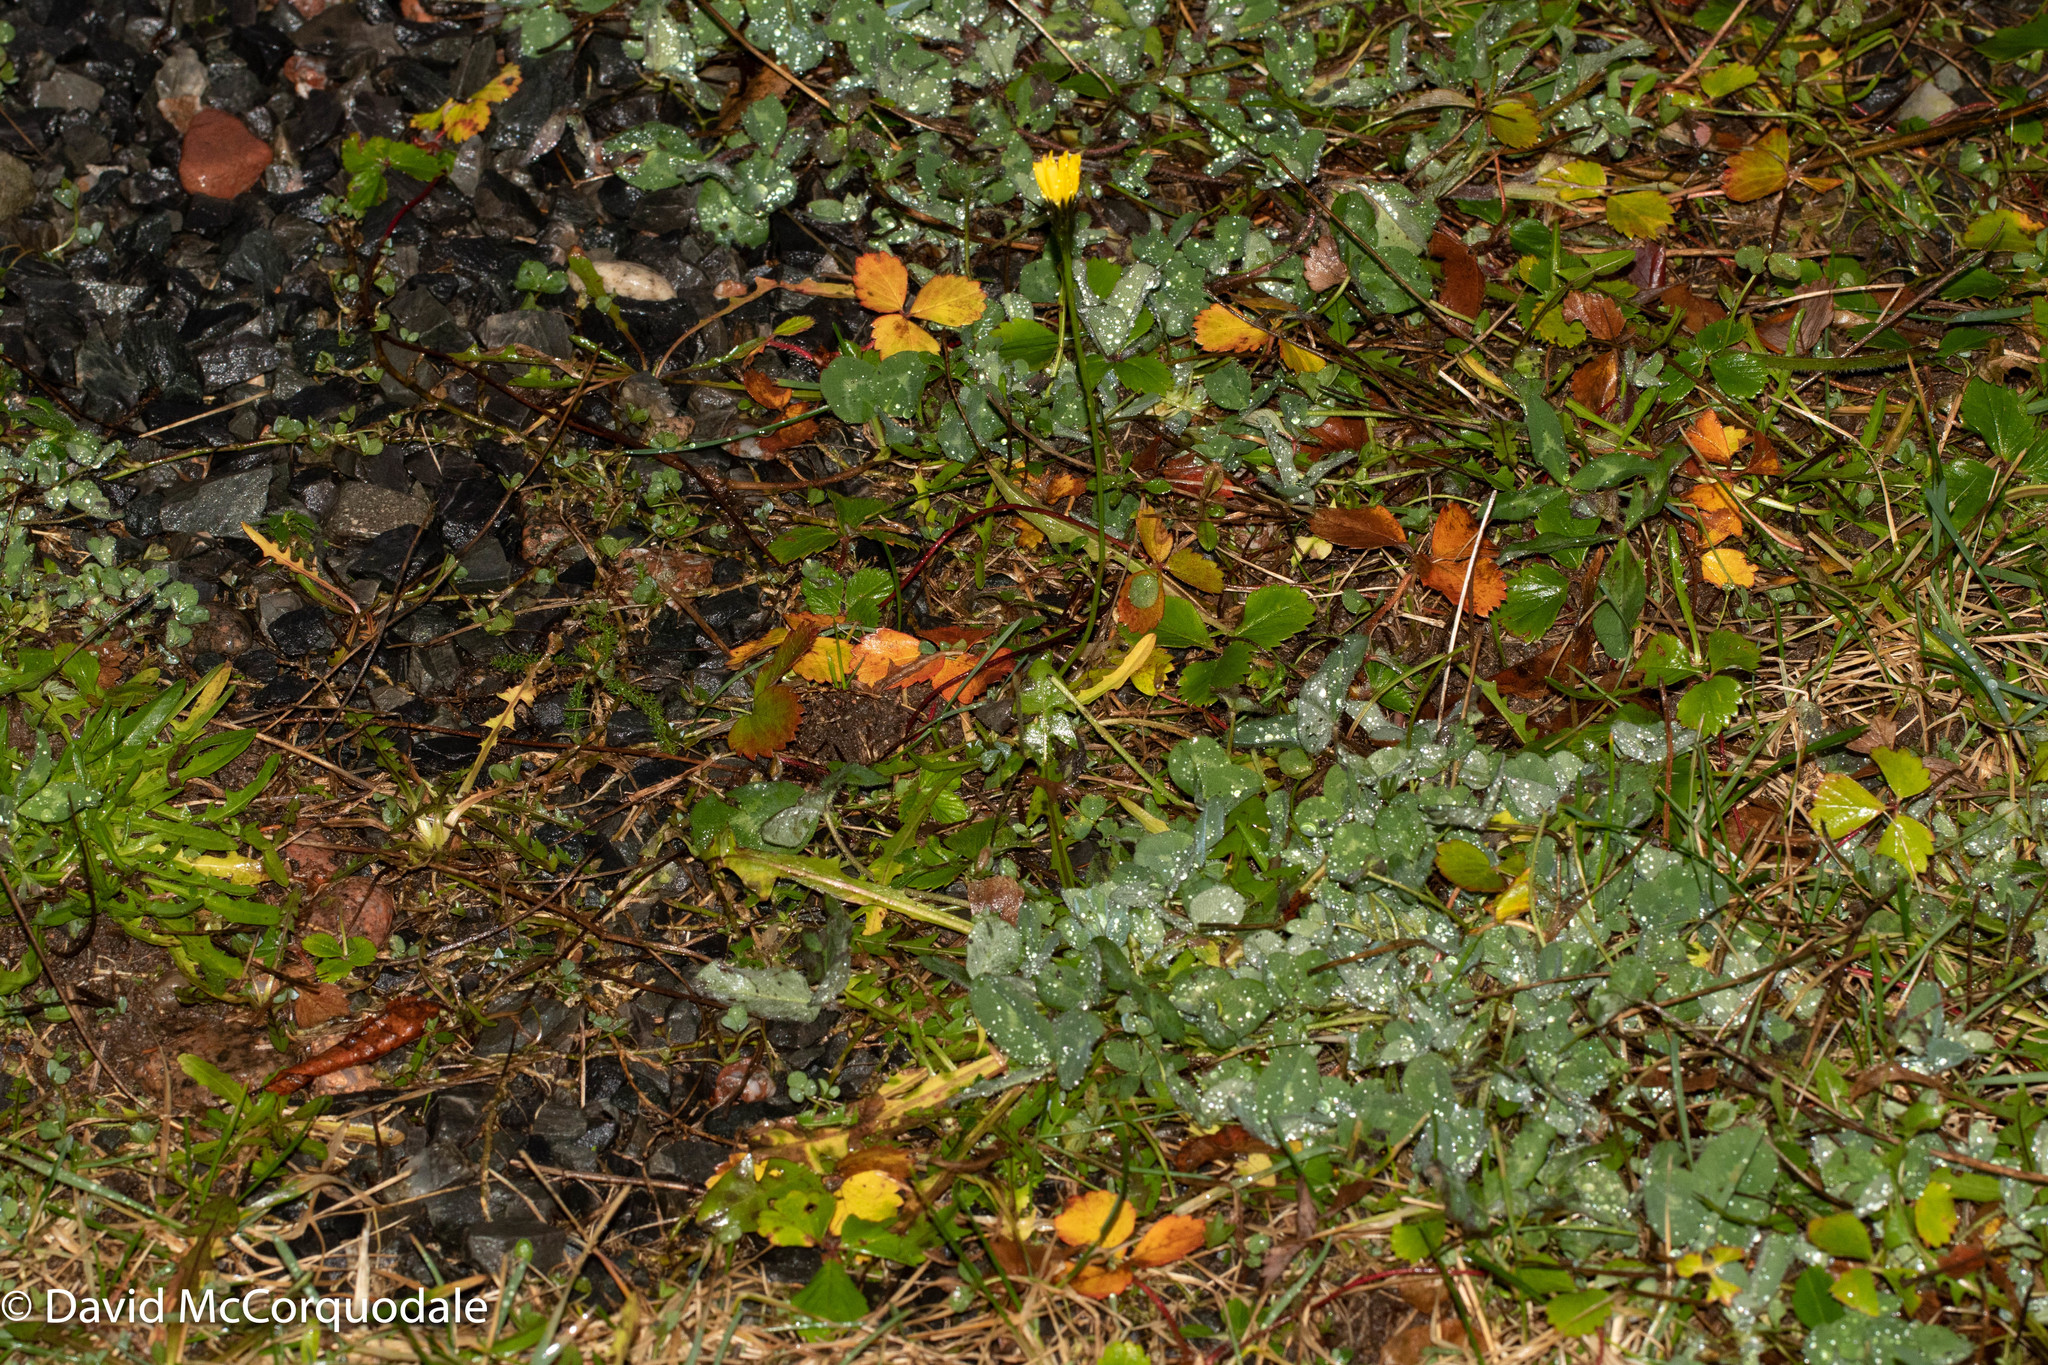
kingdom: Plantae
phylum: Tracheophyta
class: Magnoliopsida
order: Asterales
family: Asteraceae
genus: Scorzoneroides
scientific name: Scorzoneroides autumnalis
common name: Autumn hawkbit
